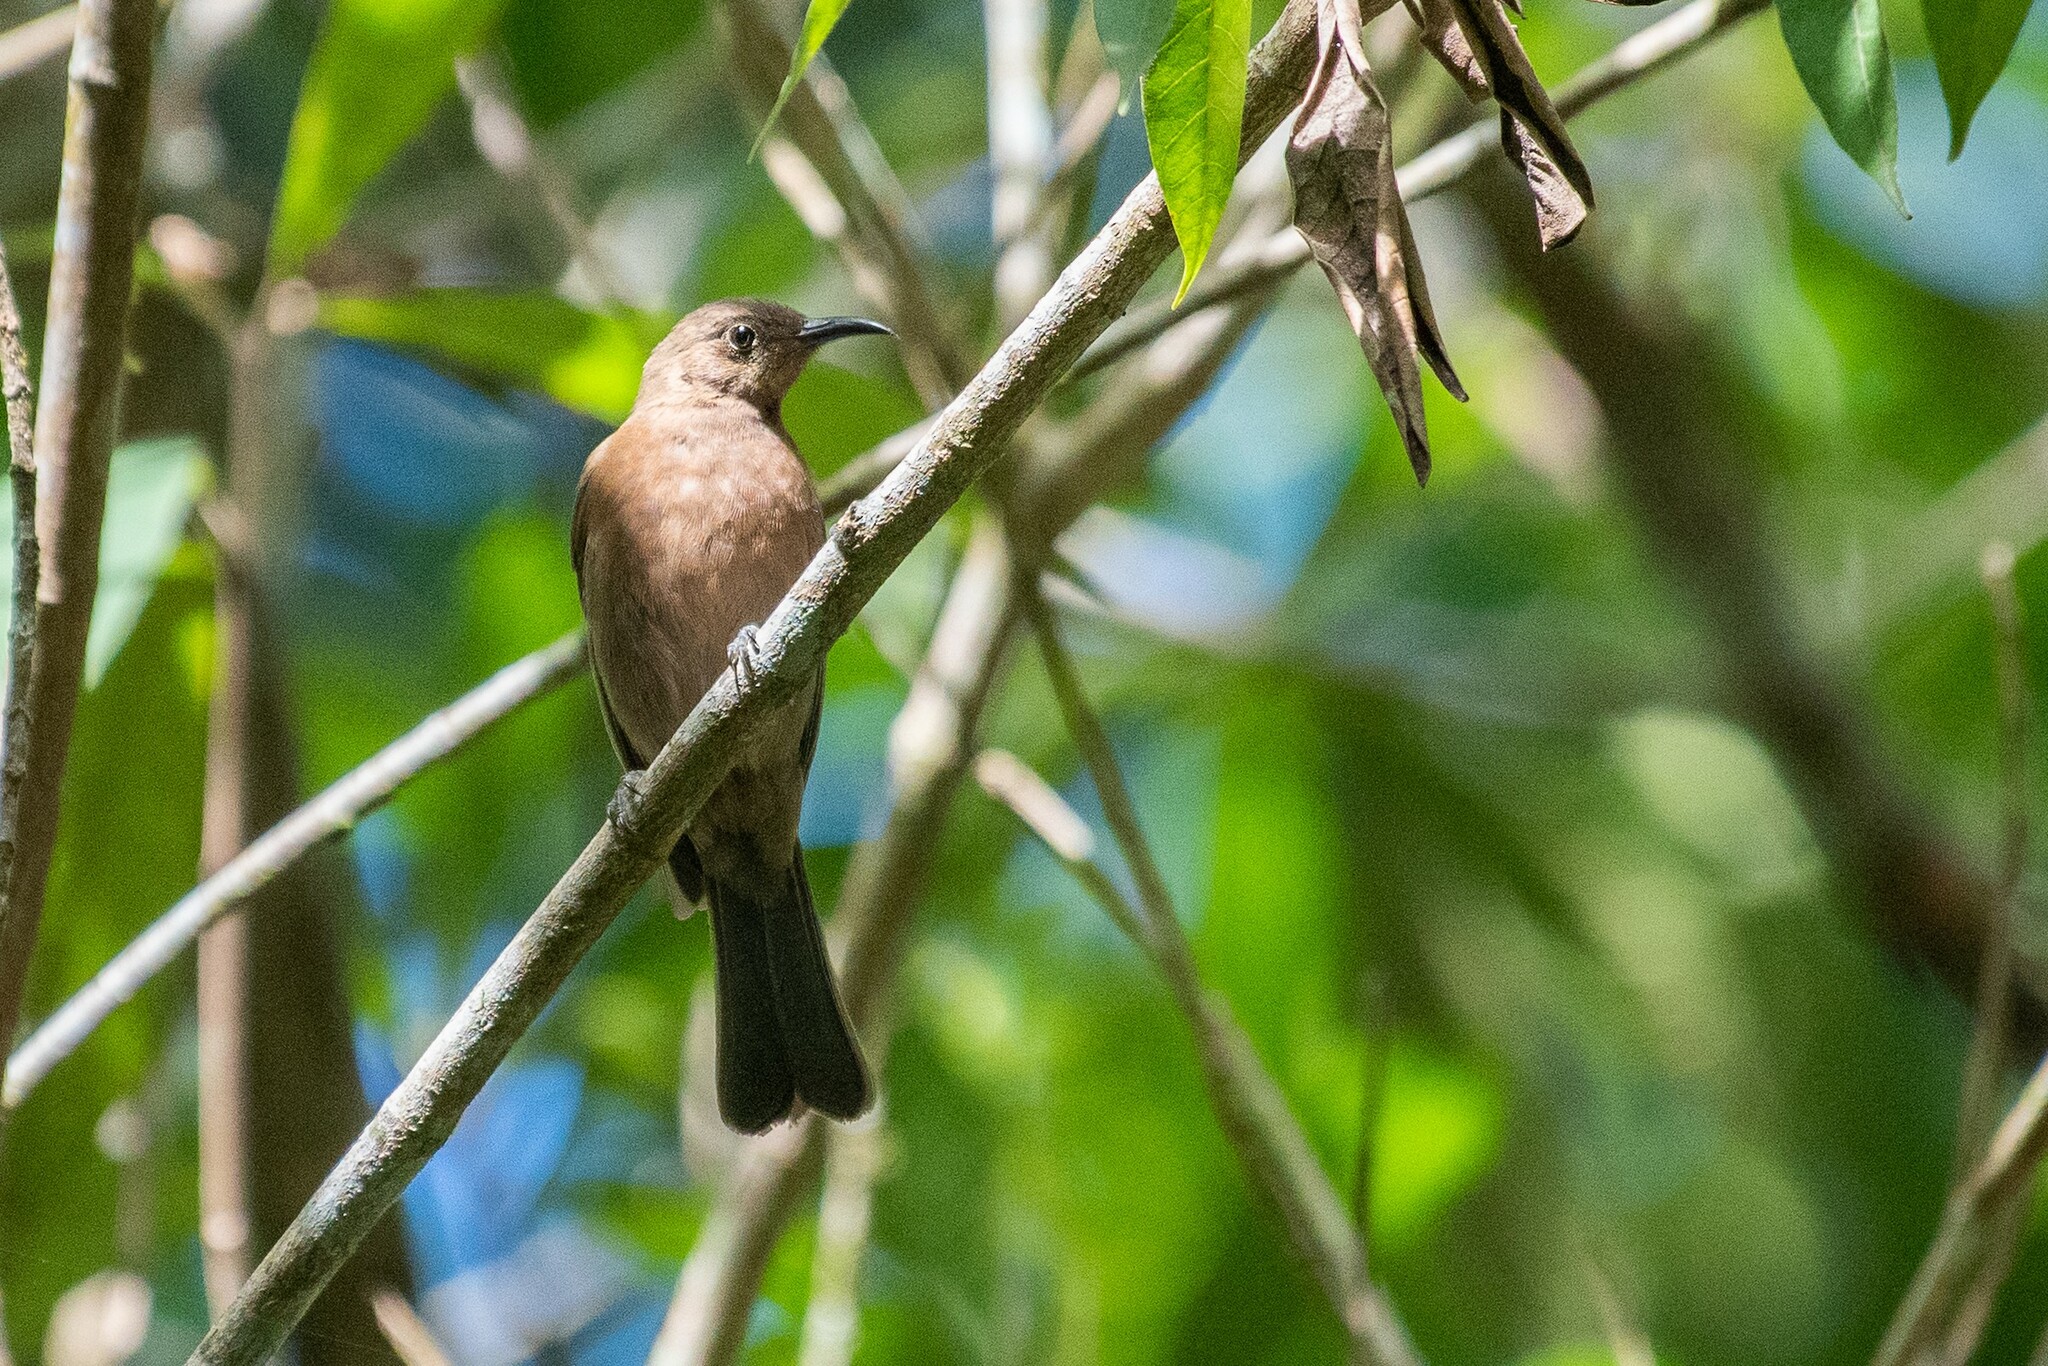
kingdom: Animalia
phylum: Chordata
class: Aves
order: Passeriformes
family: Meliphagidae
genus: Myzomela
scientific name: Myzomela obscura
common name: Dusky myzomela
